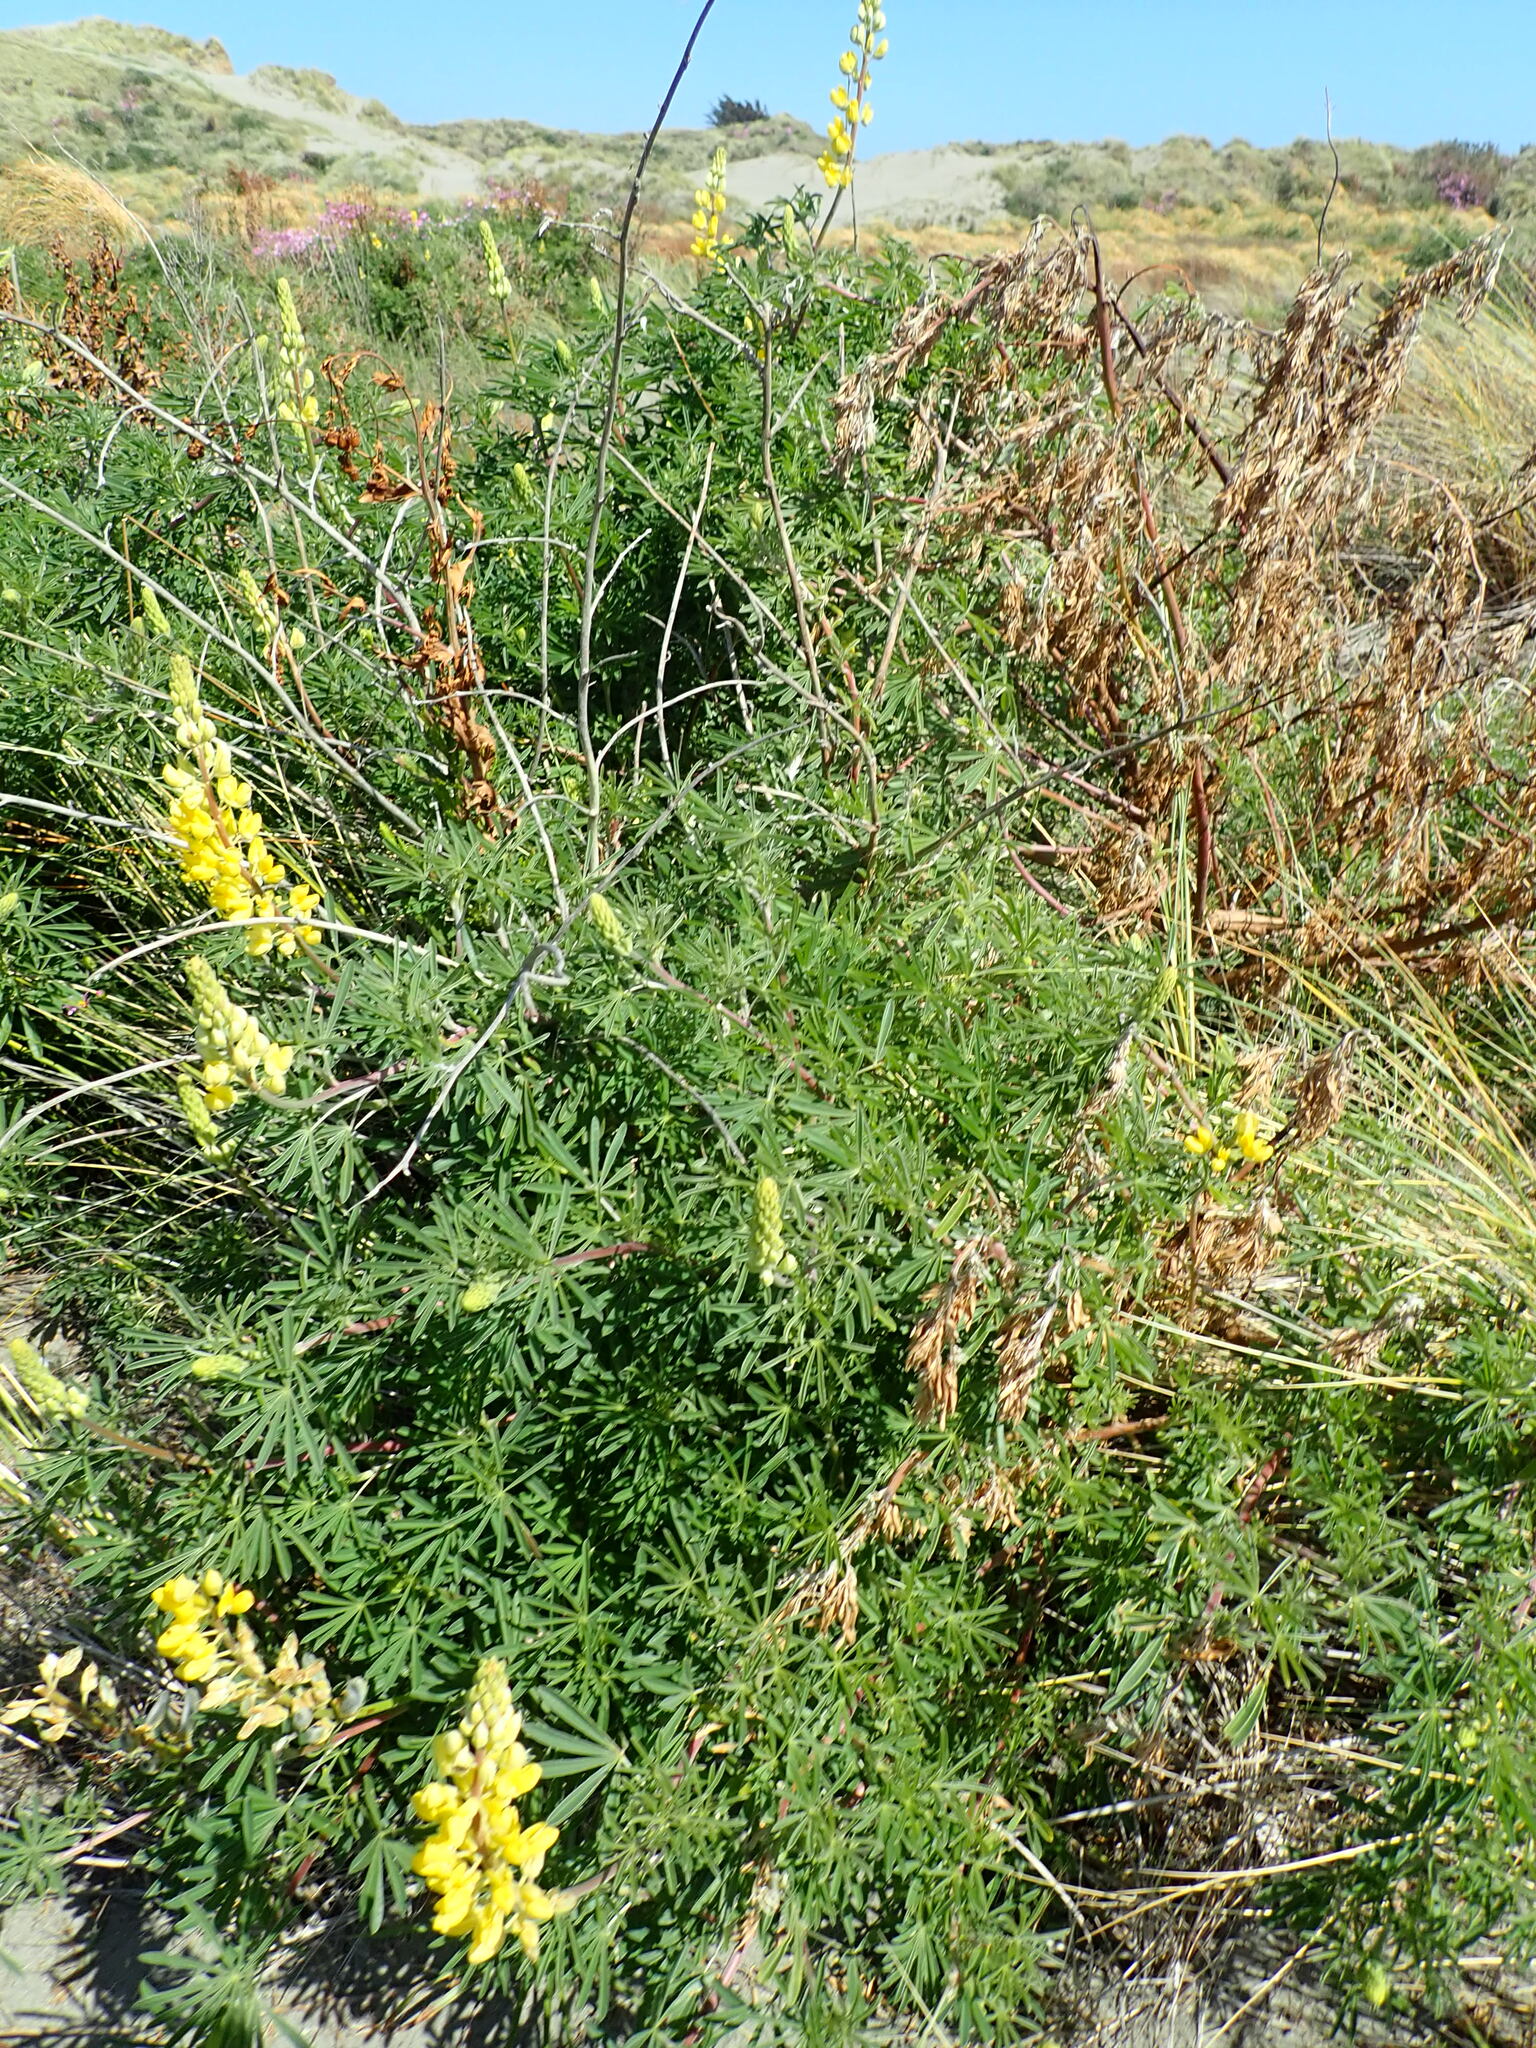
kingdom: Plantae
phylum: Tracheophyta
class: Magnoliopsida
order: Fabales
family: Fabaceae
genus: Lupinus
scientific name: Lupinus arboreus
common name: Yellow bush lupine
